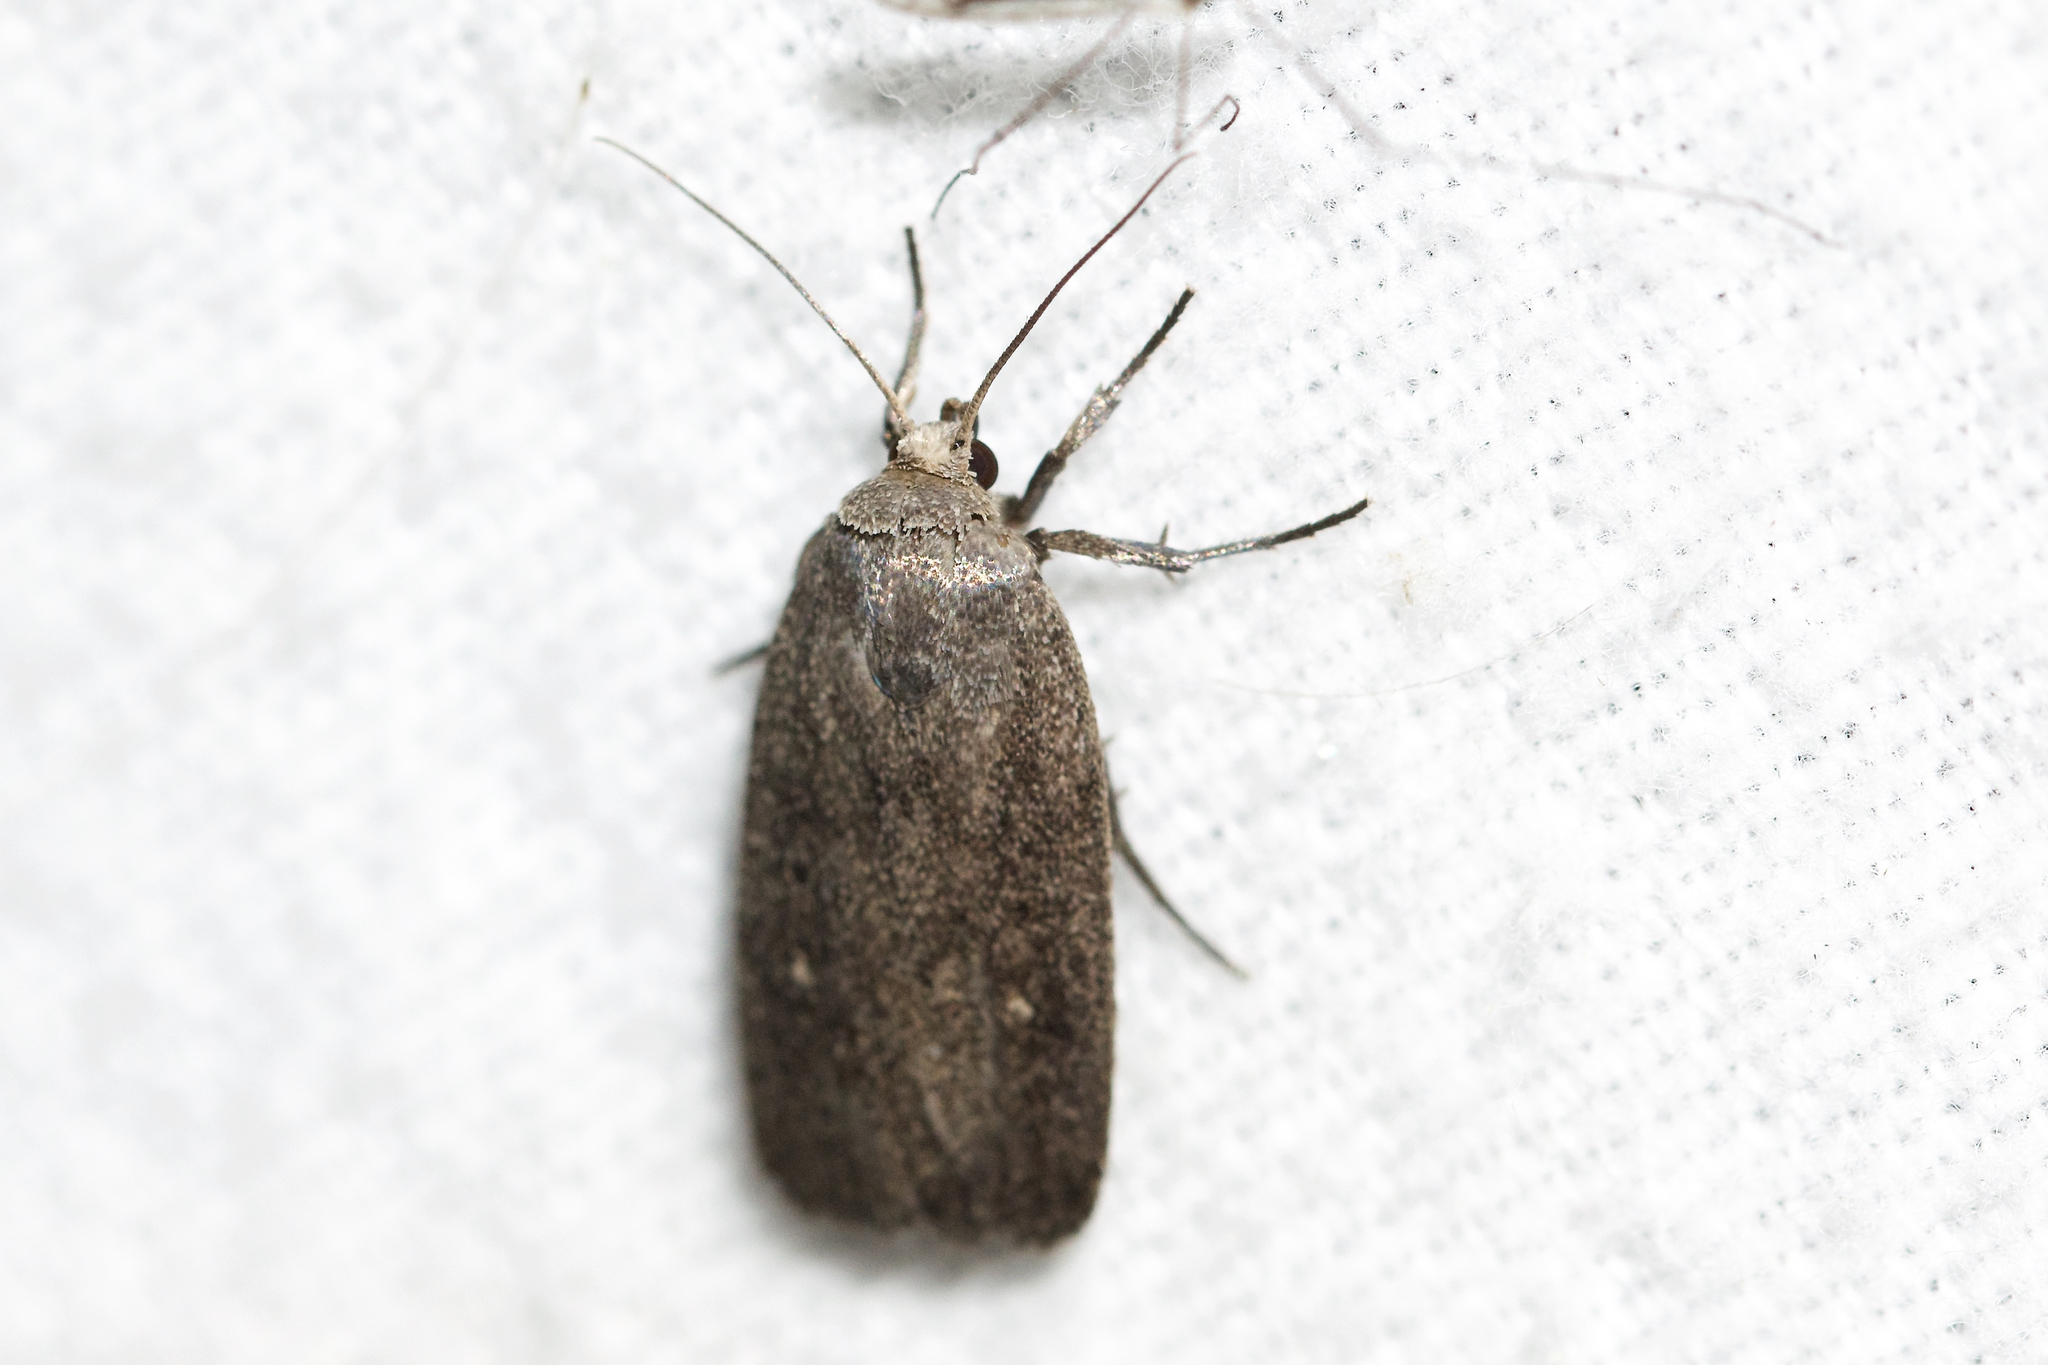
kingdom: Animalia
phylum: Arthropoda
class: Insecta
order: Lepidoptera
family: Noctuidae
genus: Proxenus
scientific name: Proxenus miranda
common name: Miranda moth
